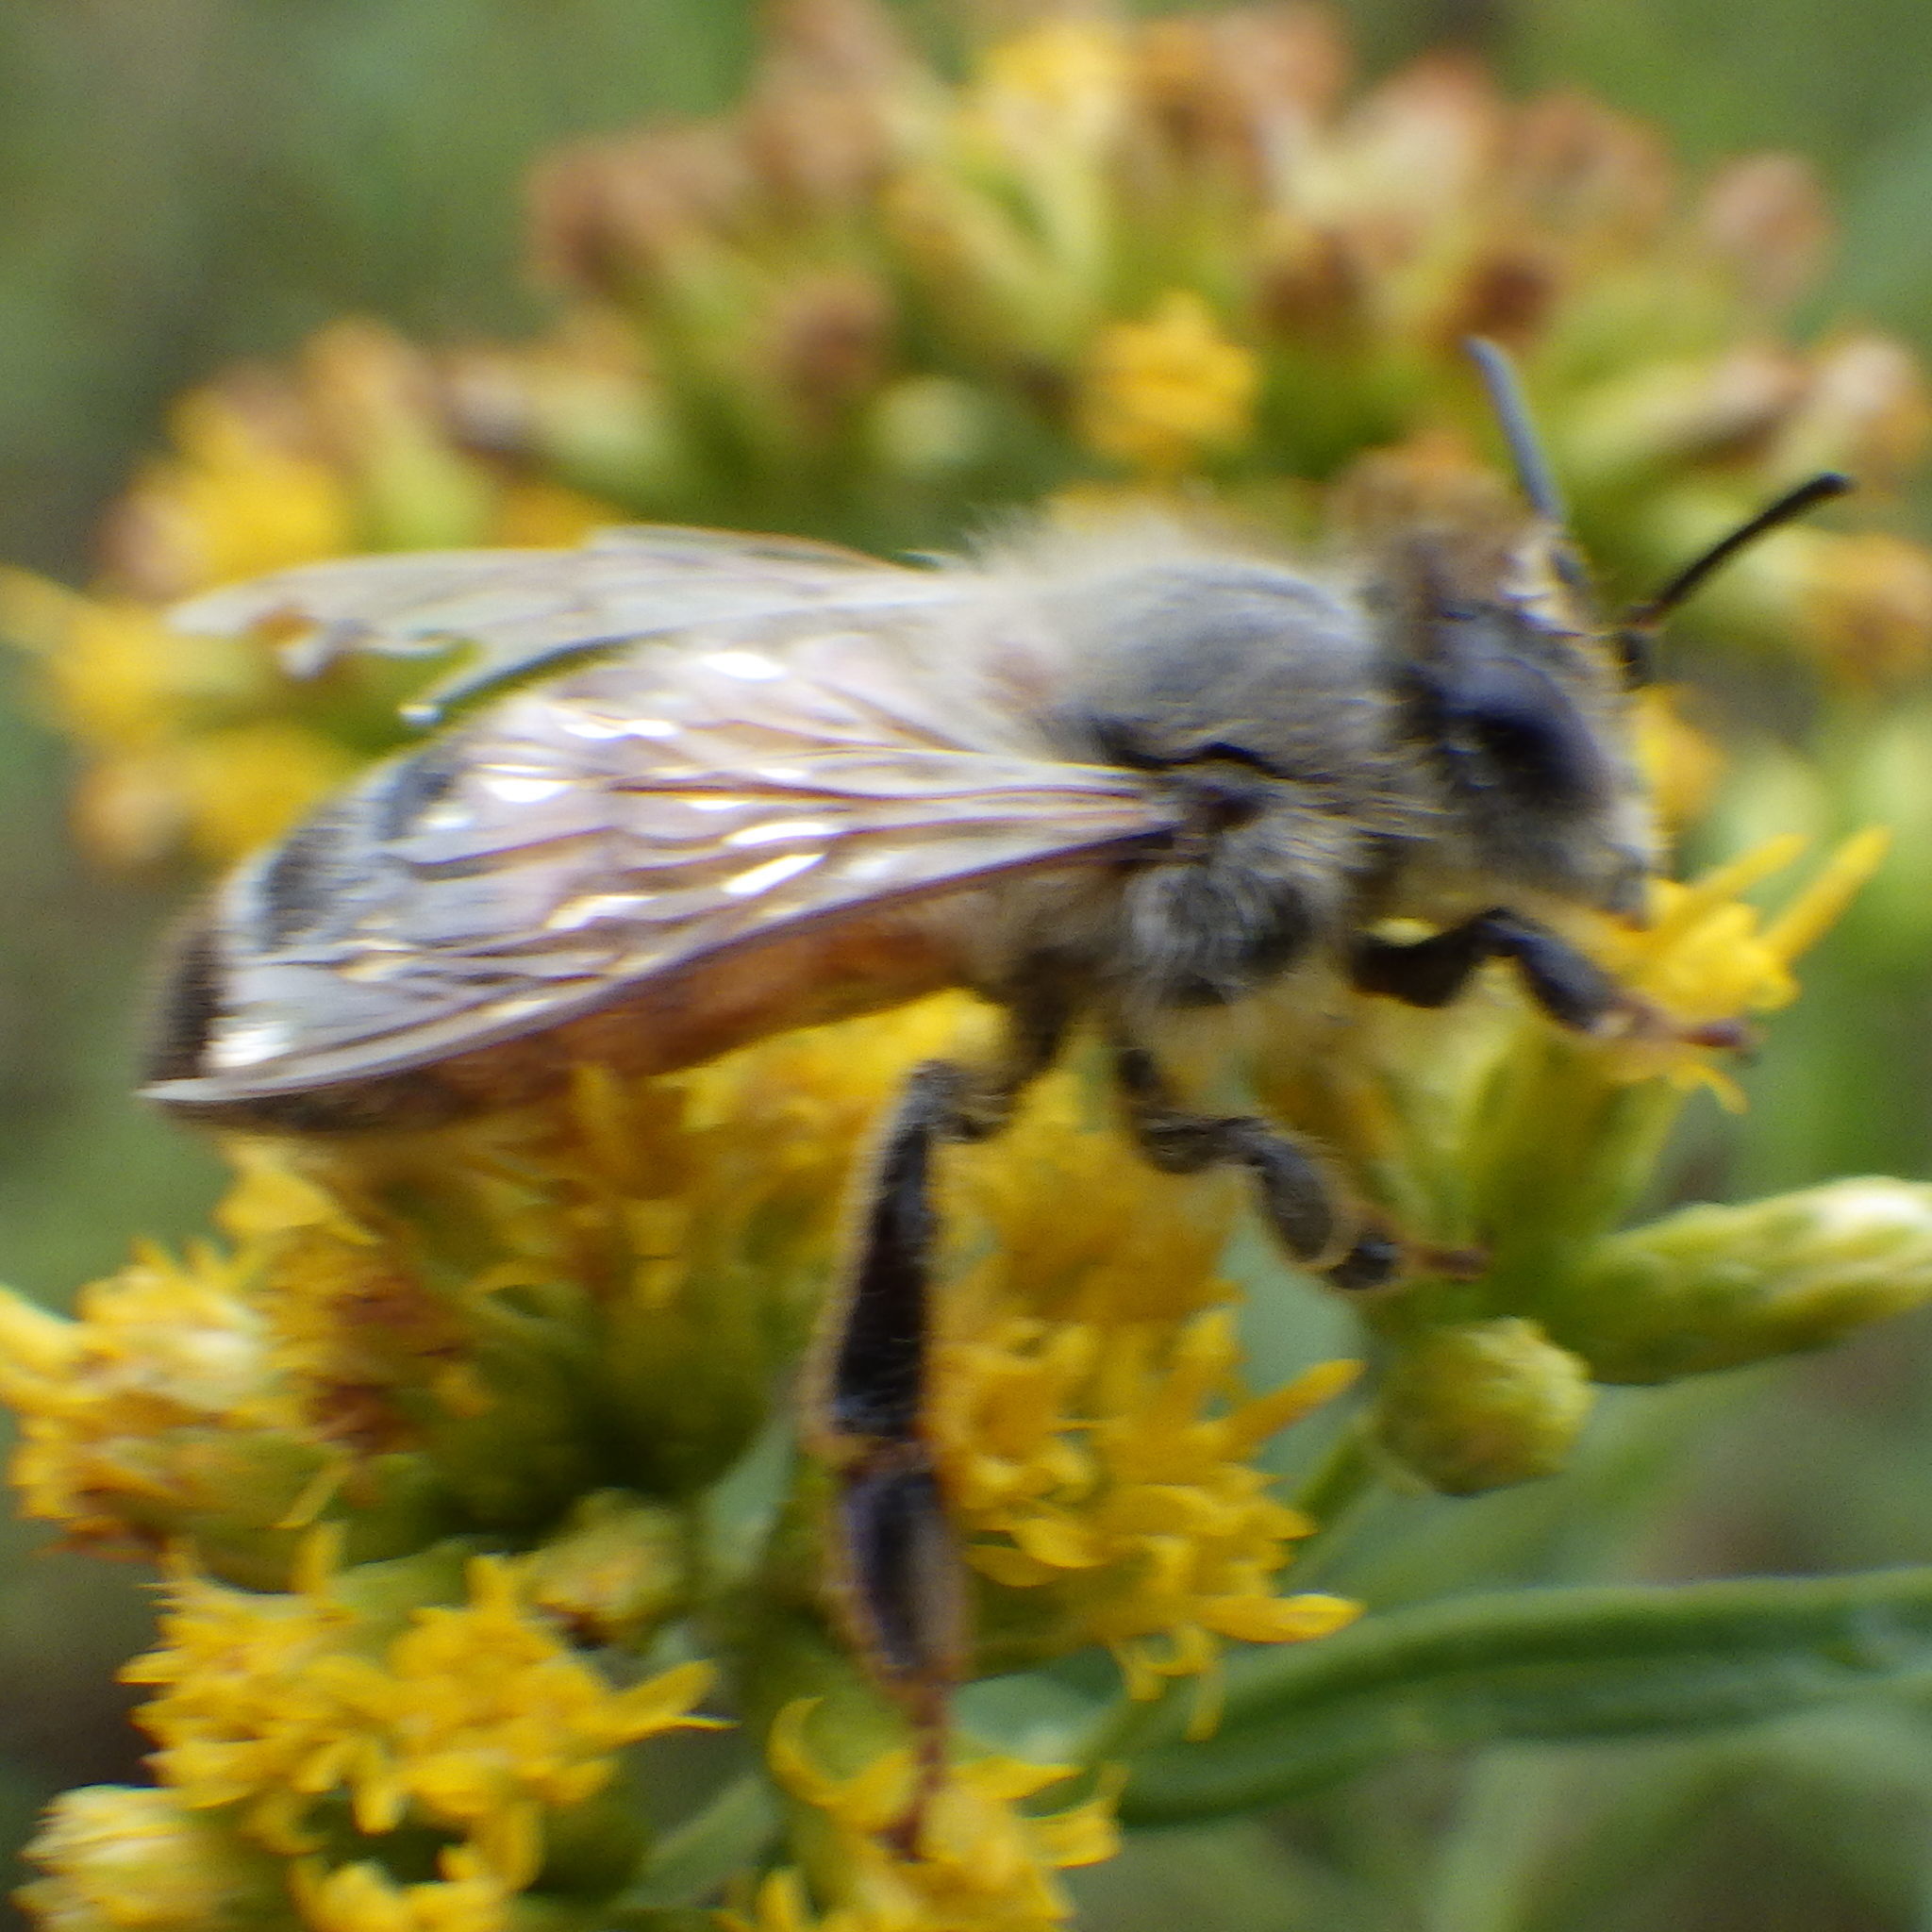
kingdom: Animalia
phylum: Arthropoda
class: Insecta
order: Hymenoptera
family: Apidae
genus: Apis
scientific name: Apis mellifera
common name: Honey bee
